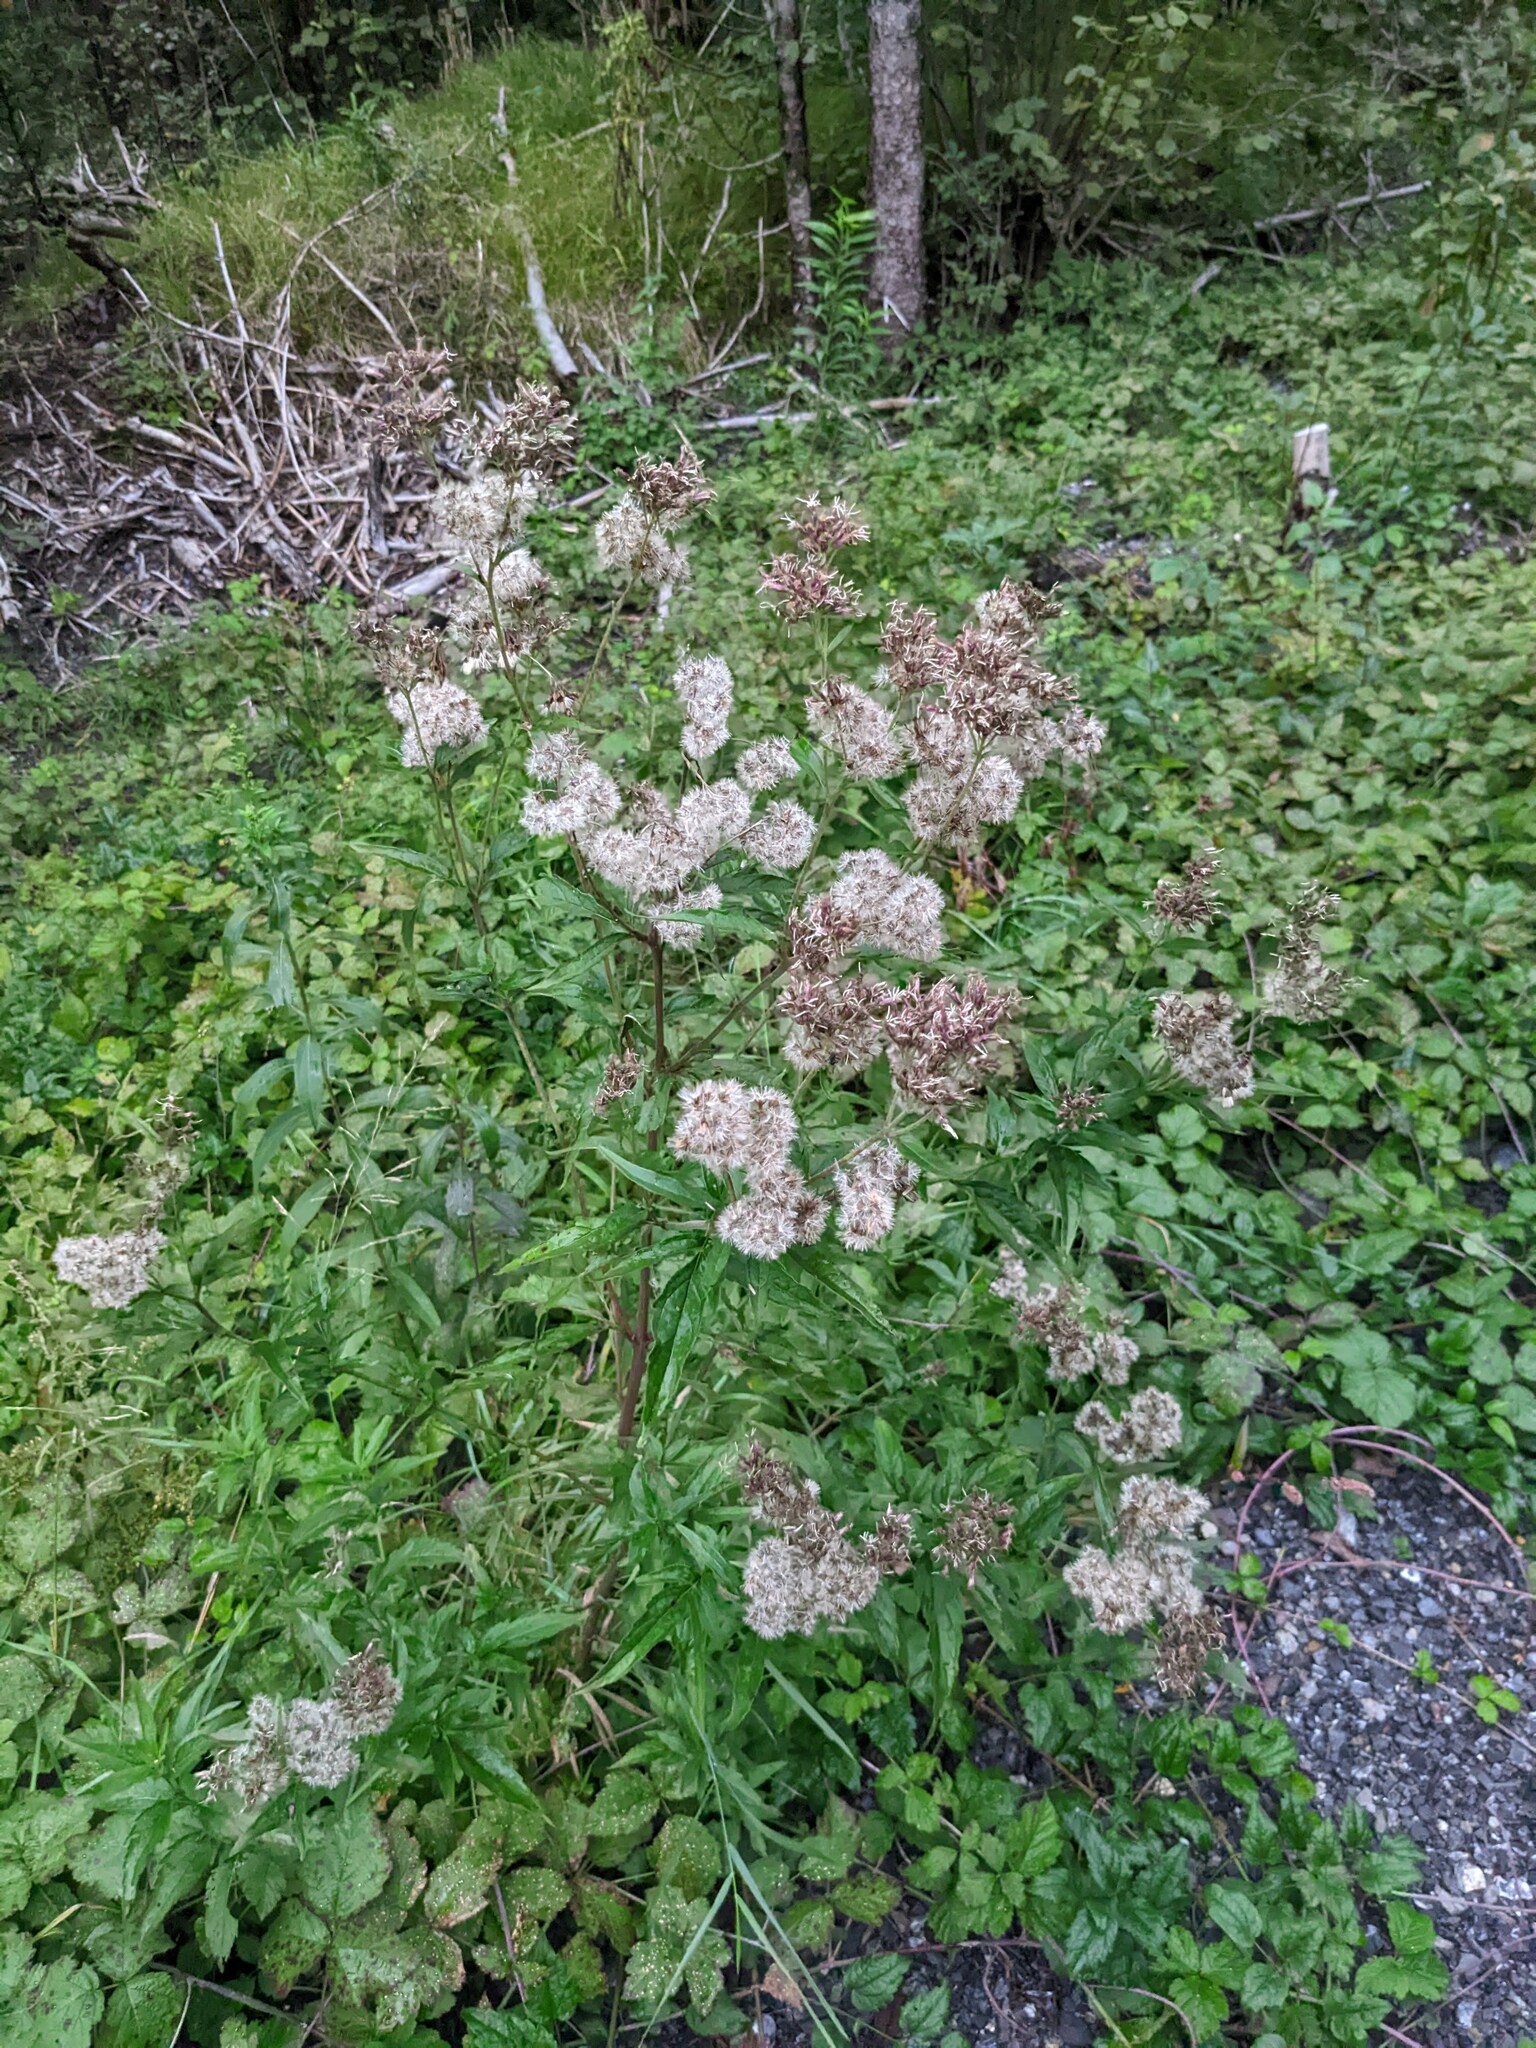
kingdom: Plantae
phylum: Tracheophyta
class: Magnoliopsida
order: Asterales
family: Asteraceae
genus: Eupatorium
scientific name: Eupatorium cannabinum
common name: Hemp-agrimony
